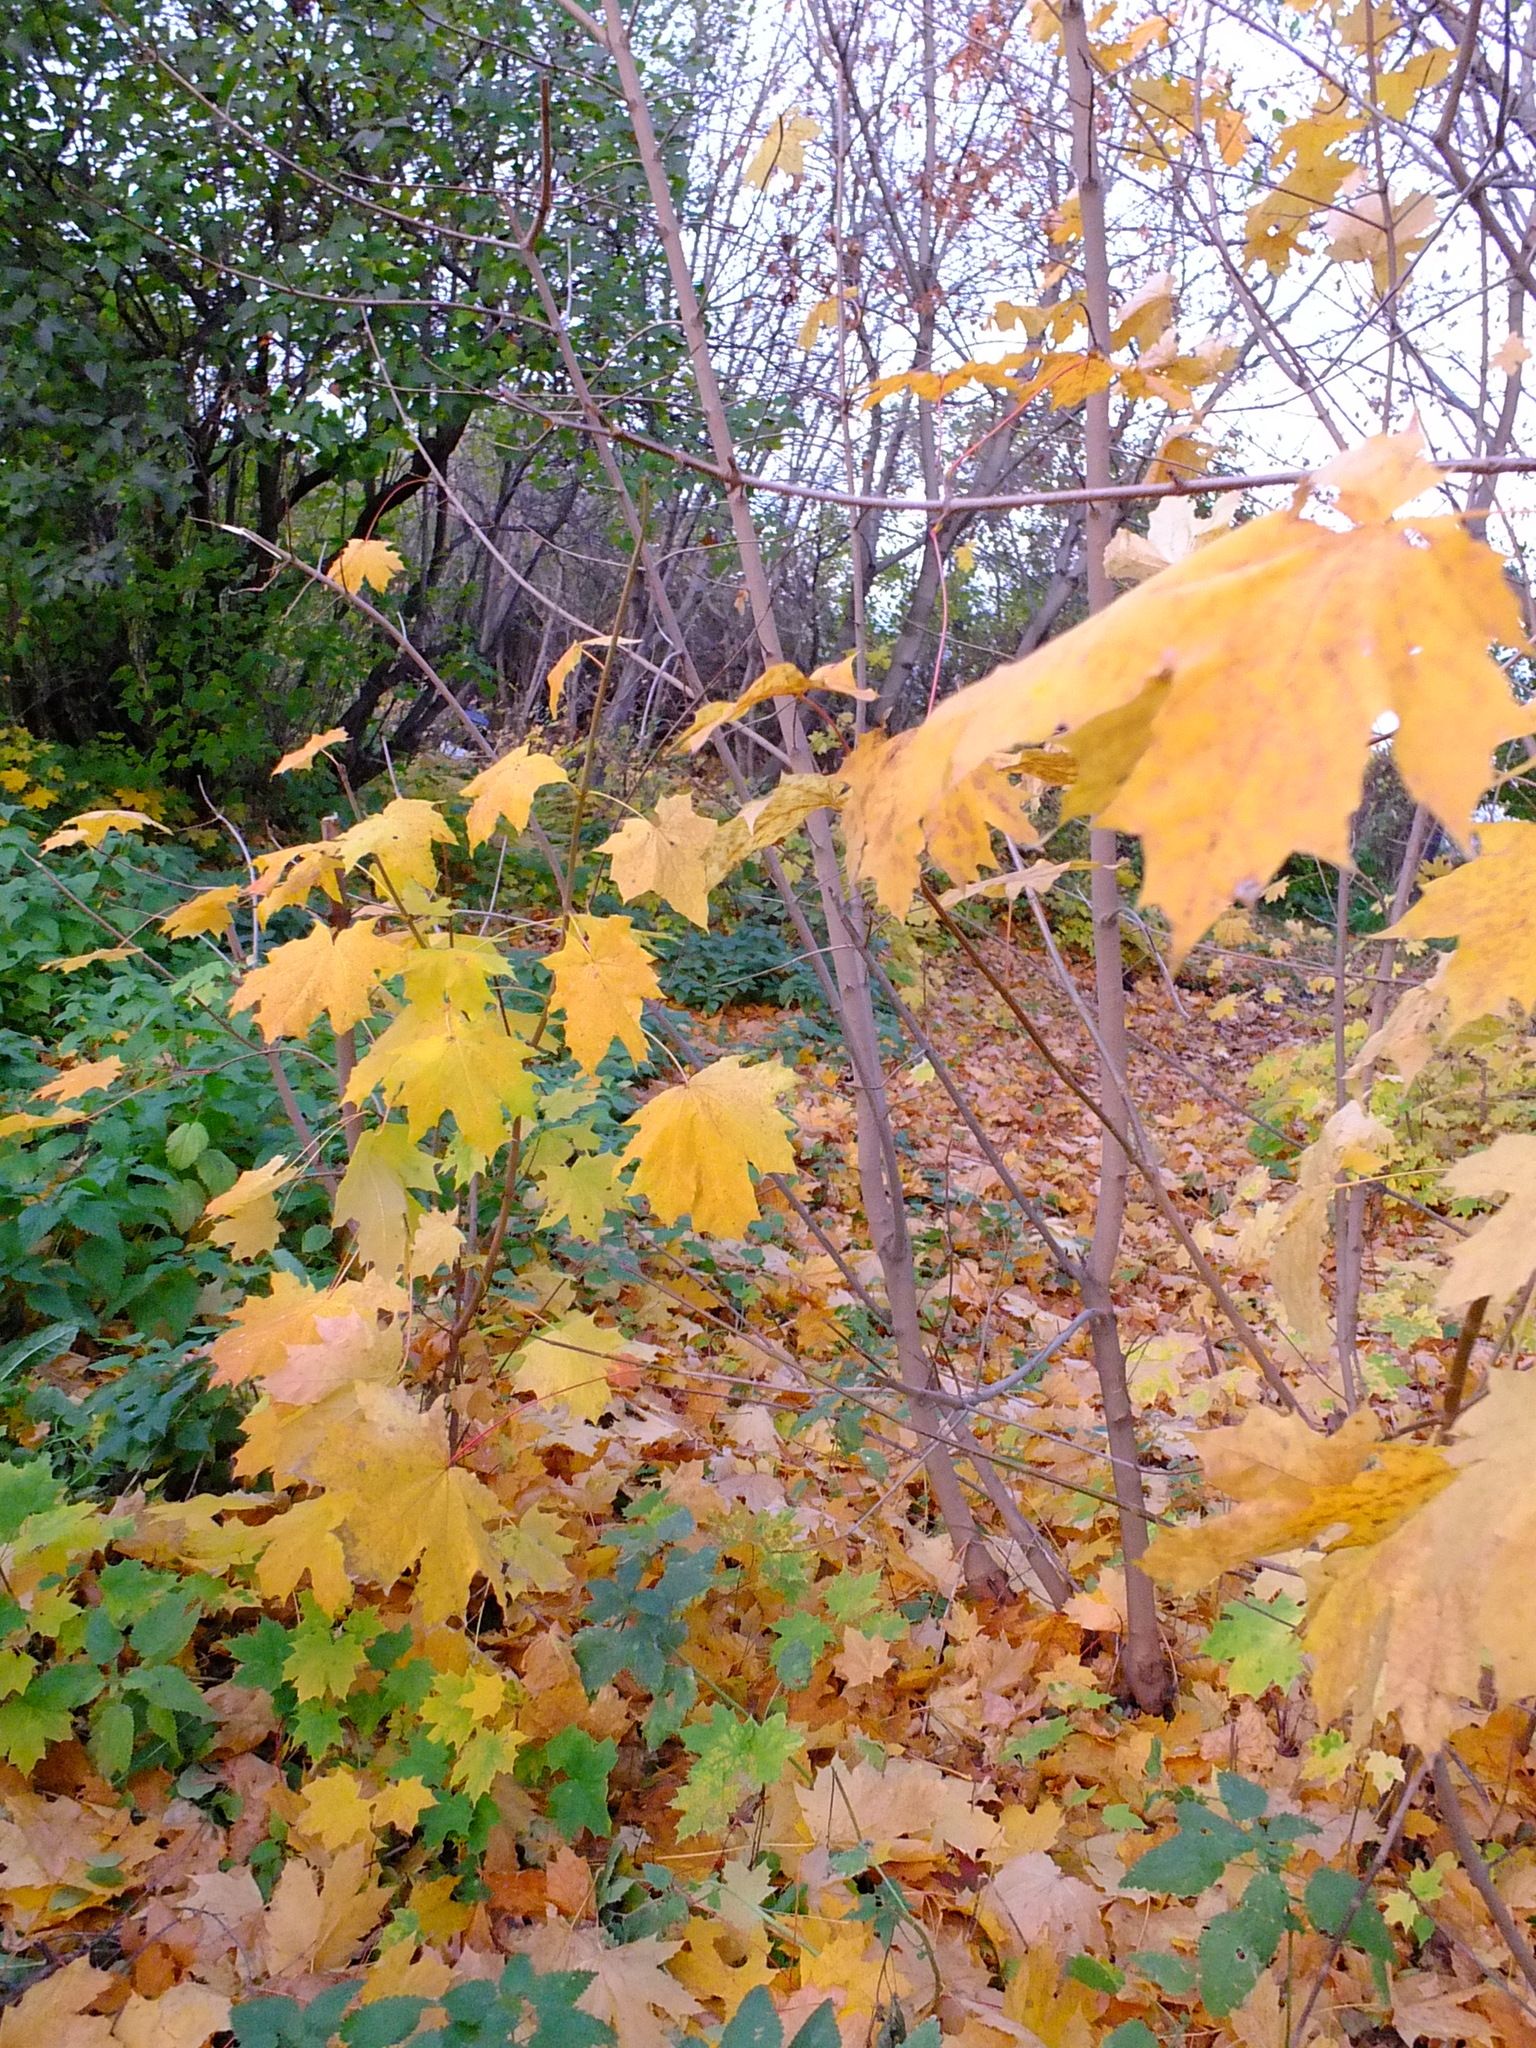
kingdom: Plantae
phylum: Tracheophyta
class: Magnoliopsida
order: Sapindales
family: Sapindaceae
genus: Acer
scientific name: Acer platanoides
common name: Norway maple
